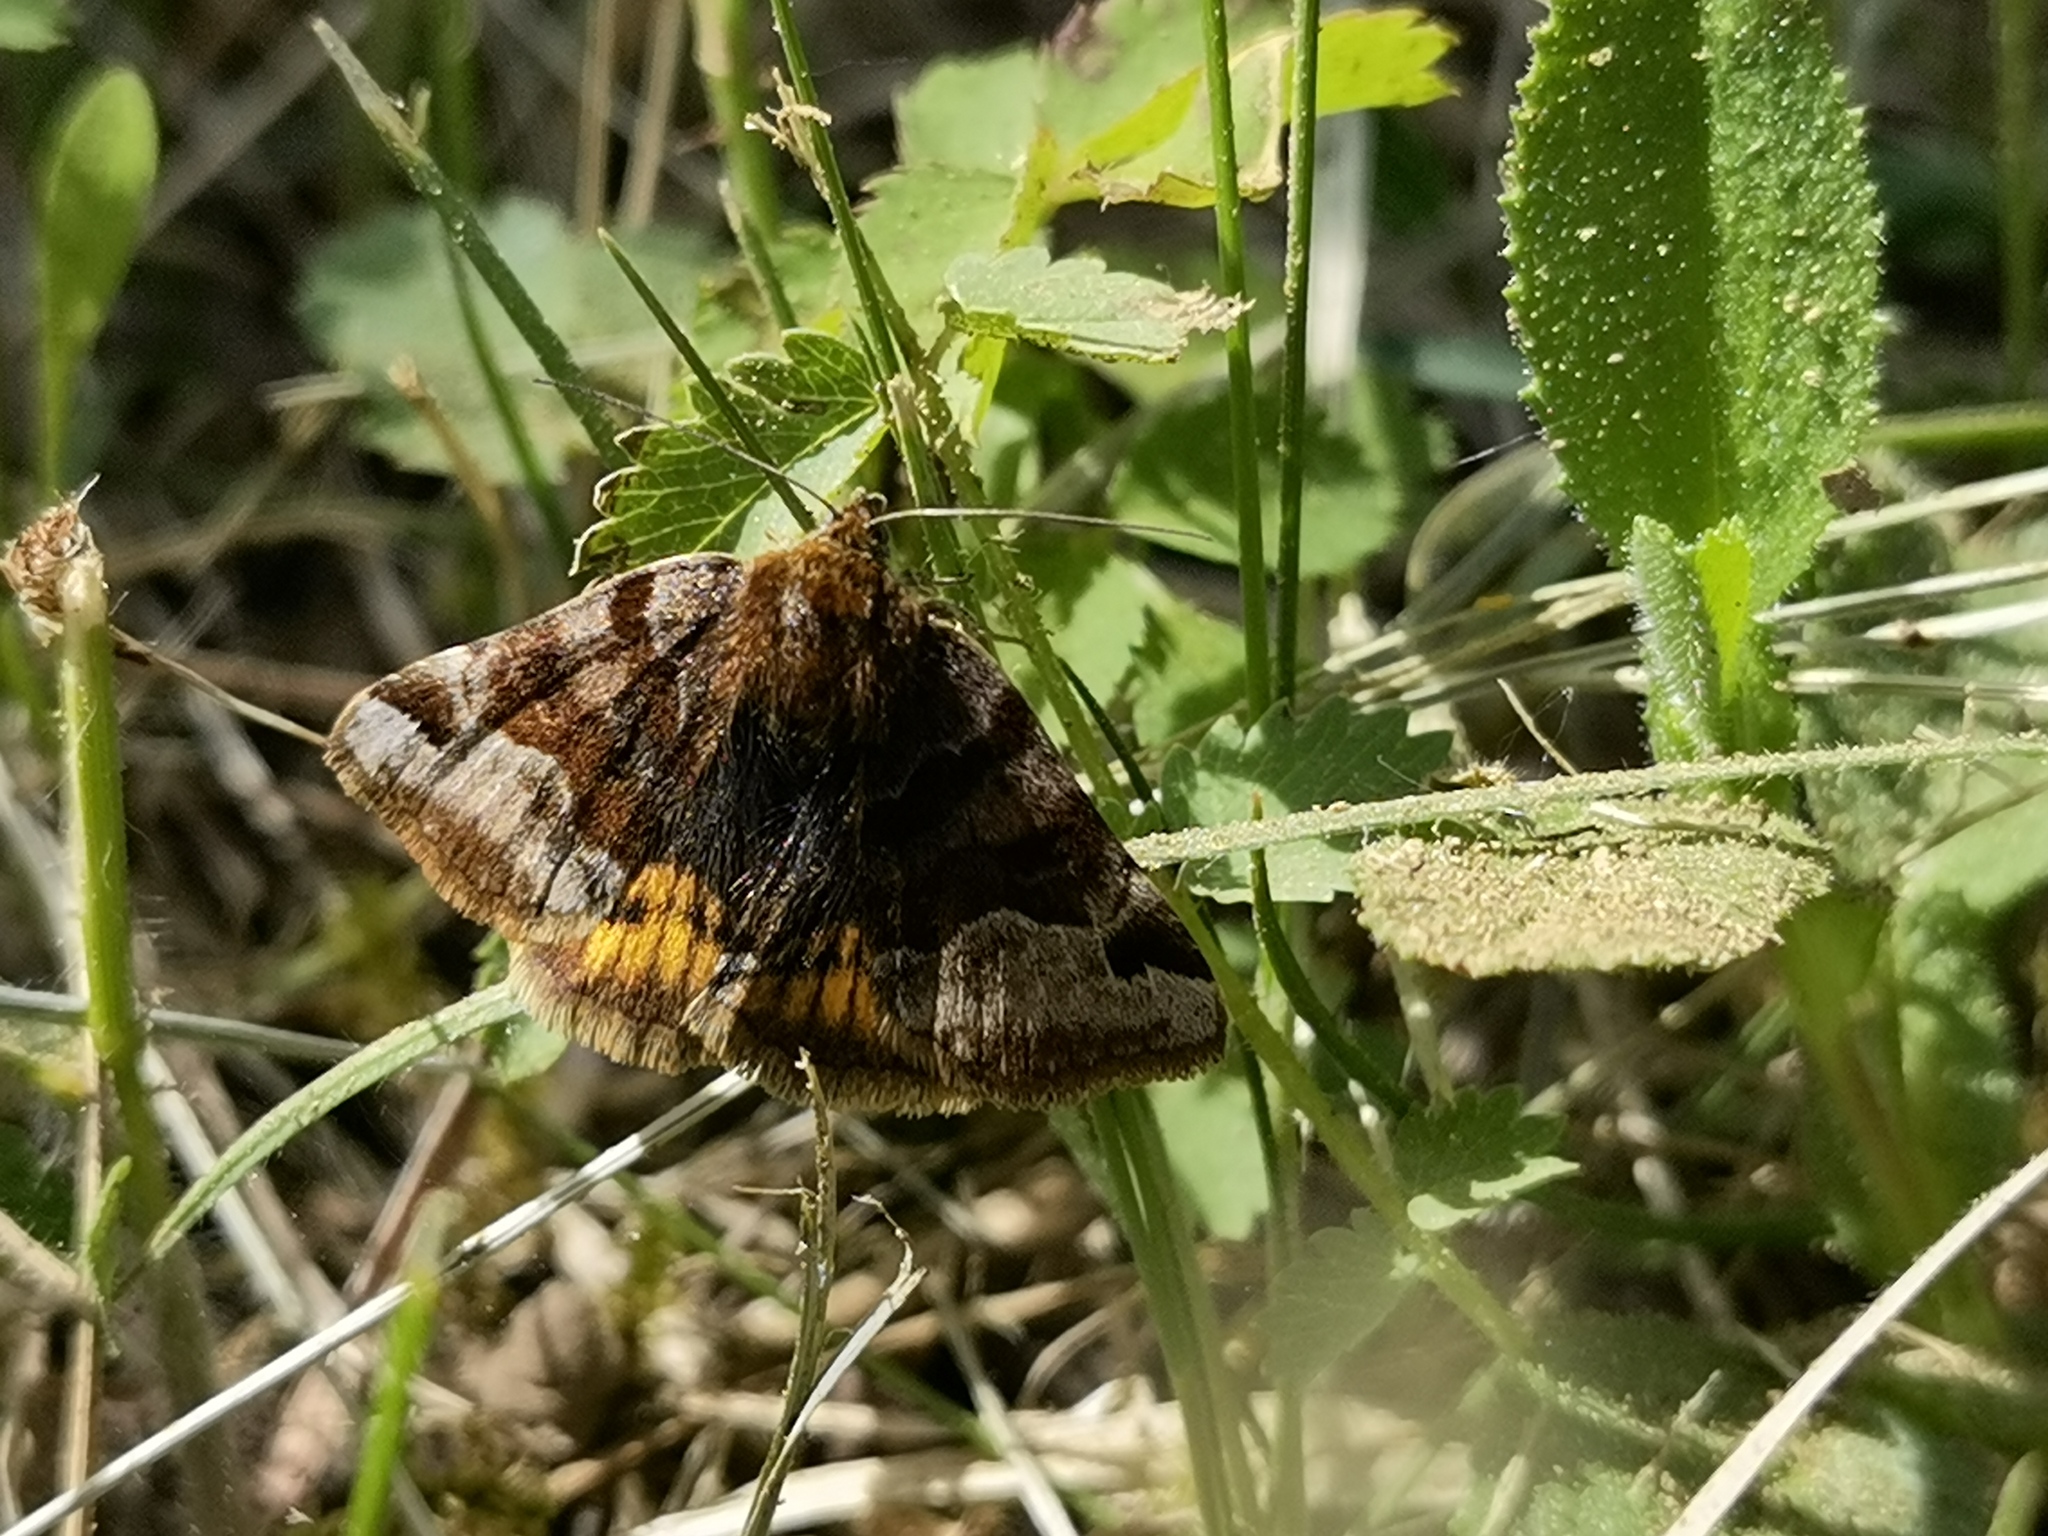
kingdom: Animalia
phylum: Arthropoda
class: Insecta
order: Lepidoptera
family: Erebidae
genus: Euclidia
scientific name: Euclidia glyphica
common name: Burnet companion
